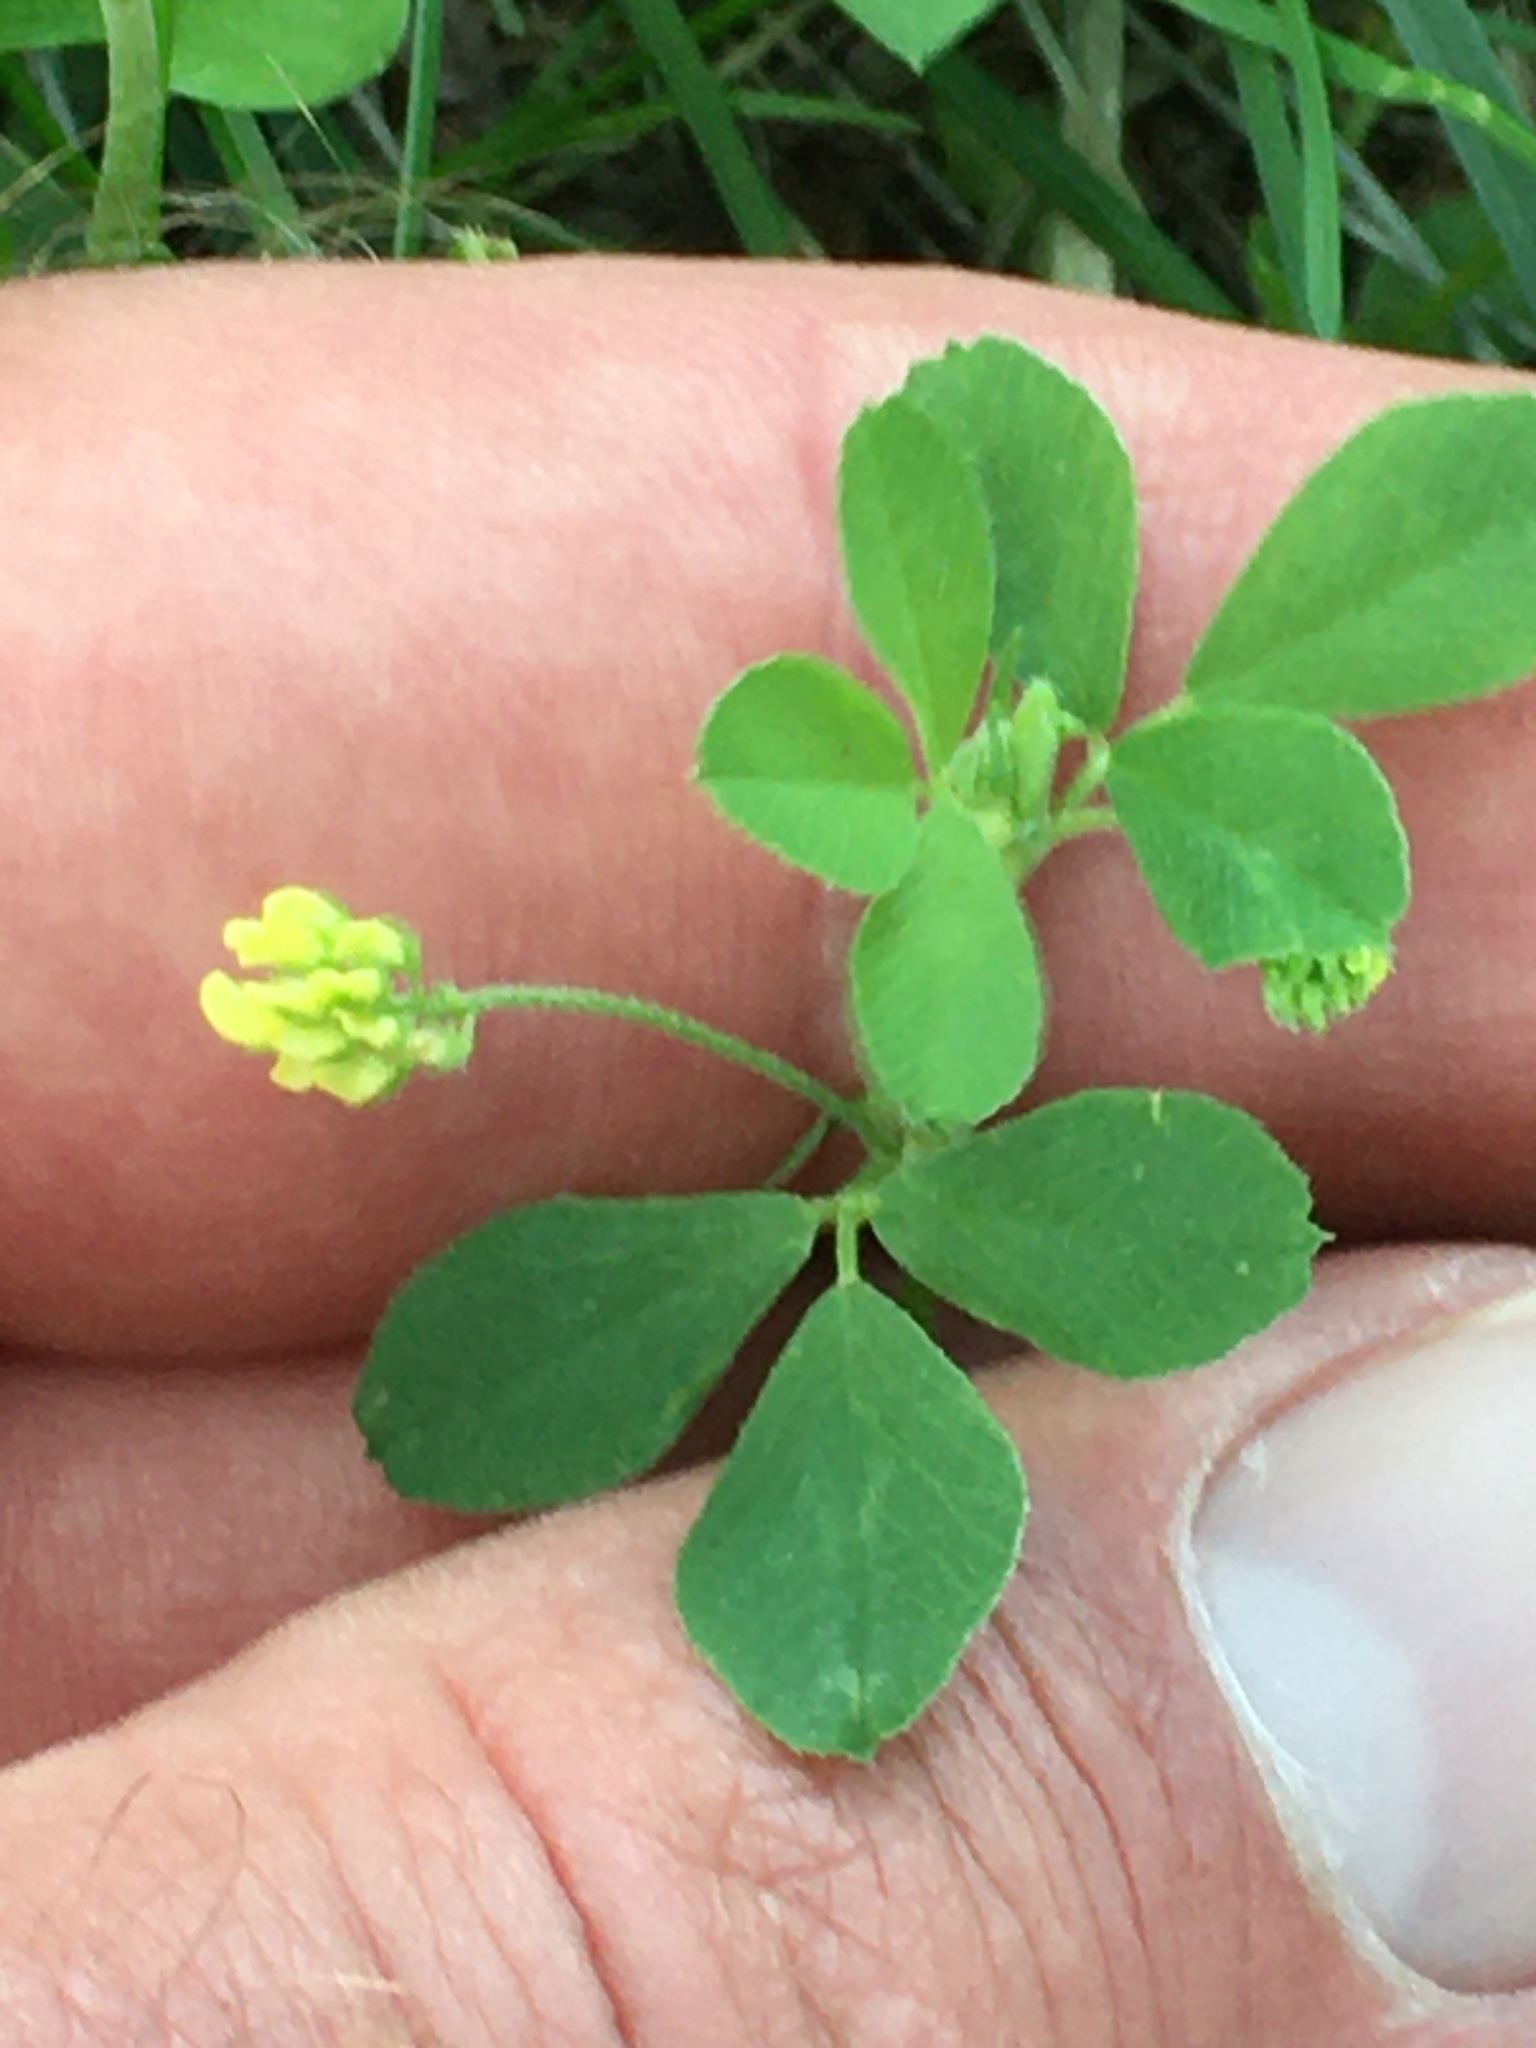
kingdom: Plantae
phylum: Tracheophyta
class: Magnoliopsida
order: Fabales
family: Fabaceae
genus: Medicago
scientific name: Medicago lupulina
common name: Black medick
